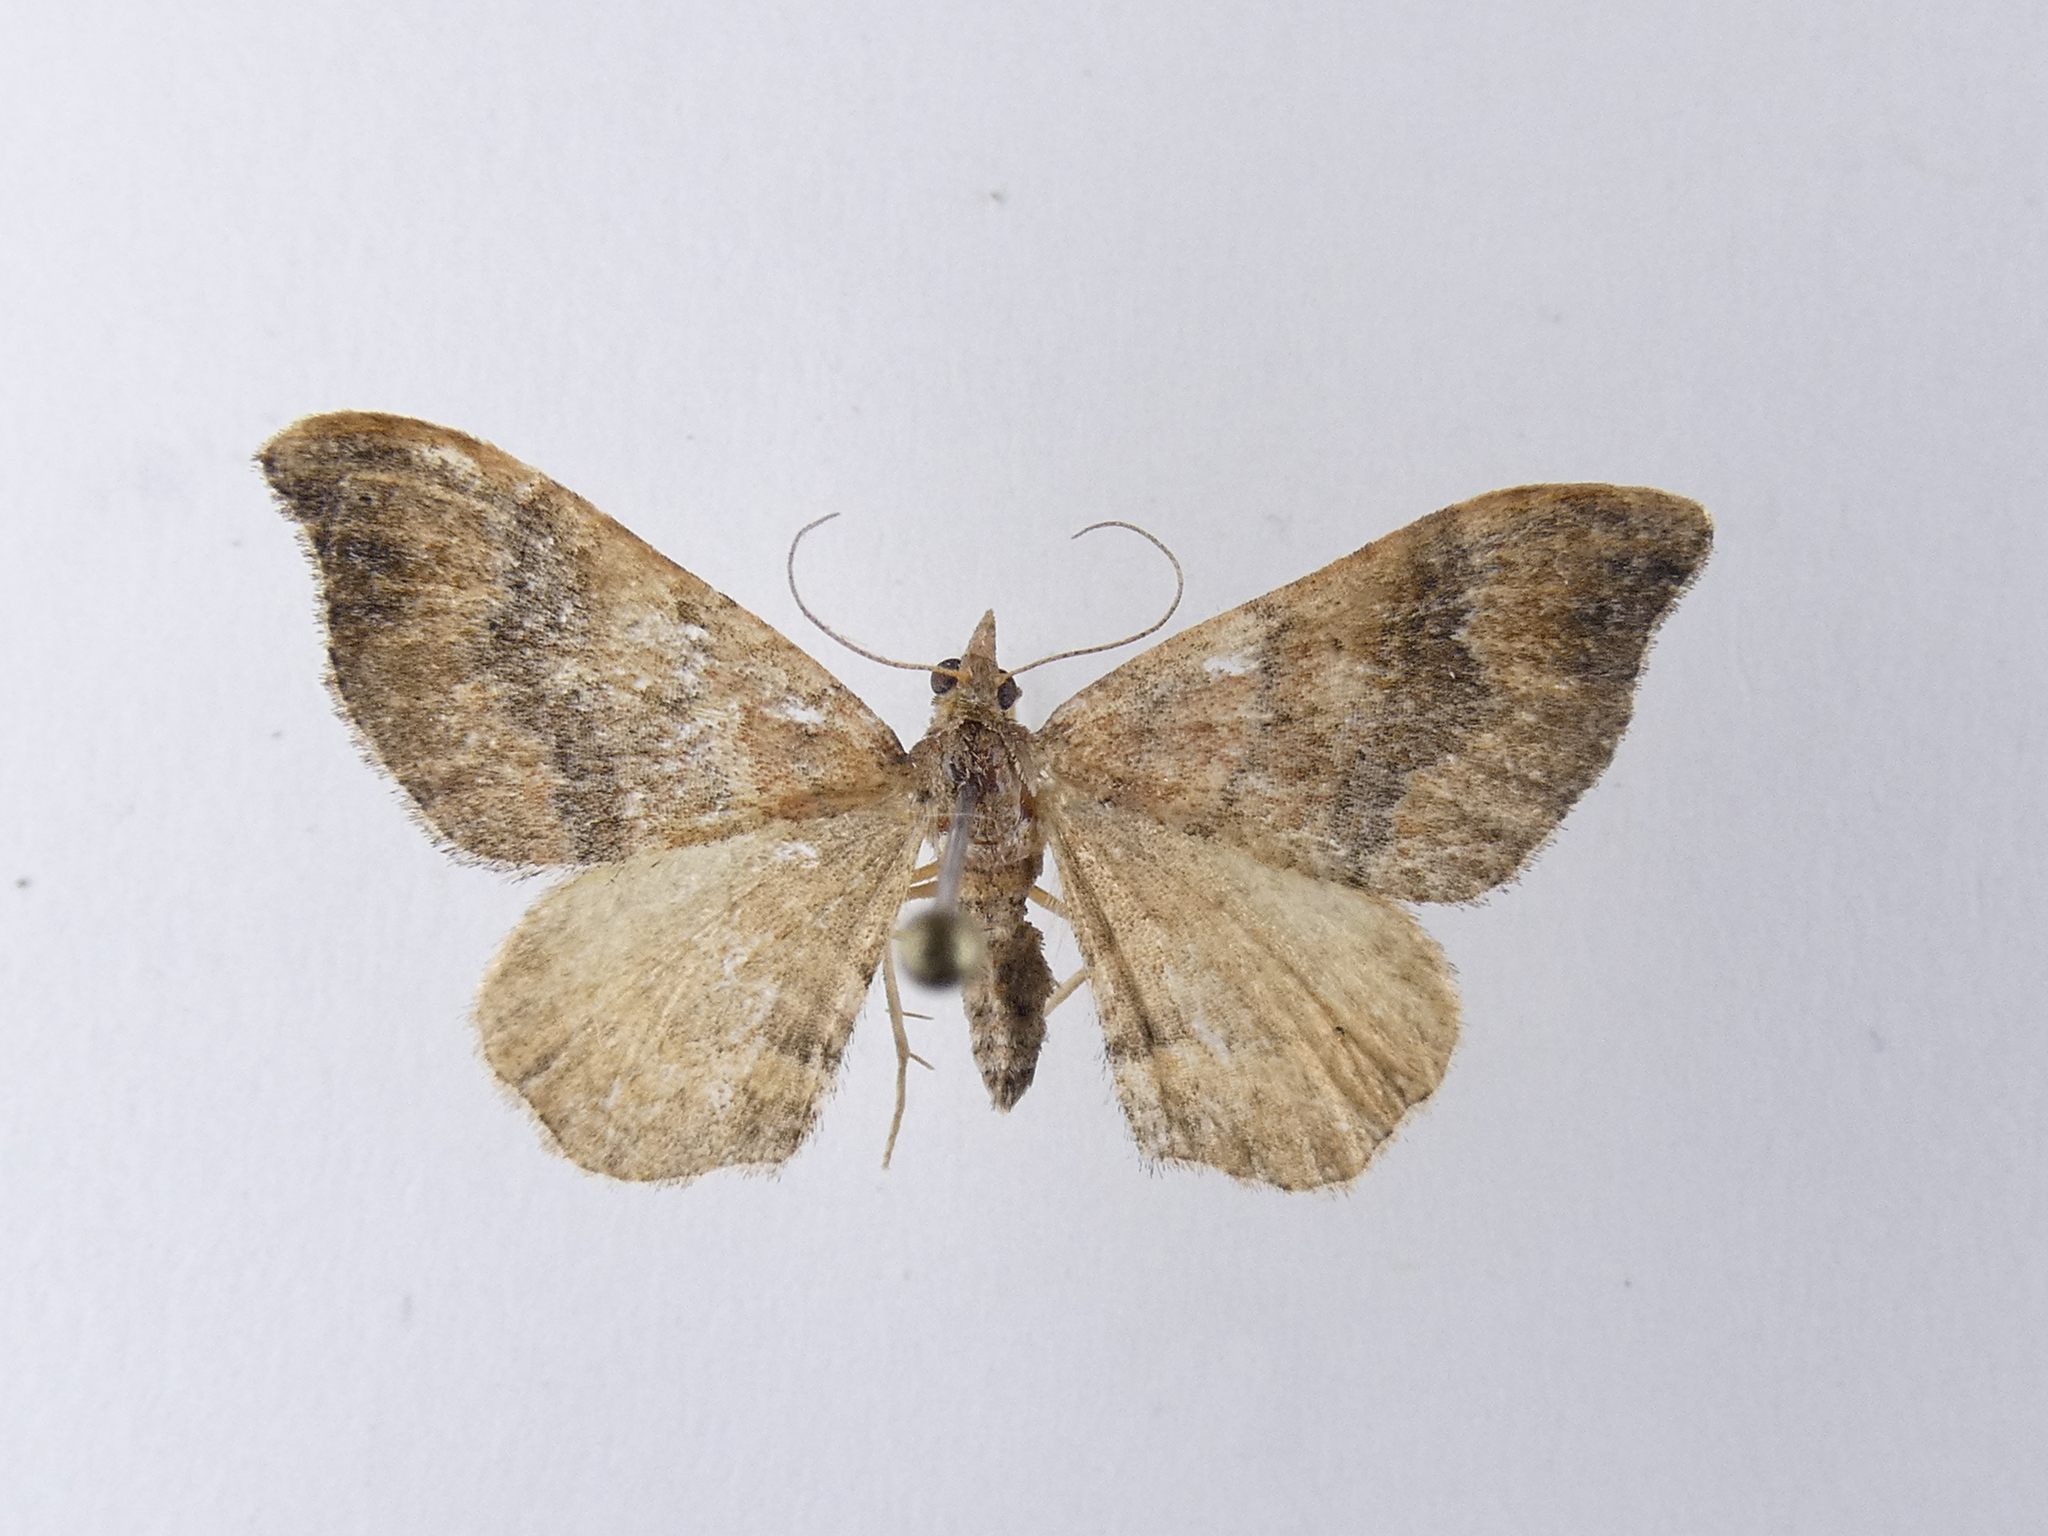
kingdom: Animalia
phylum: Arthropoda
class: Insecta
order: Lepidoptera
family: Geometridae
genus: Homodotis
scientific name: Homodotis megaspilata
